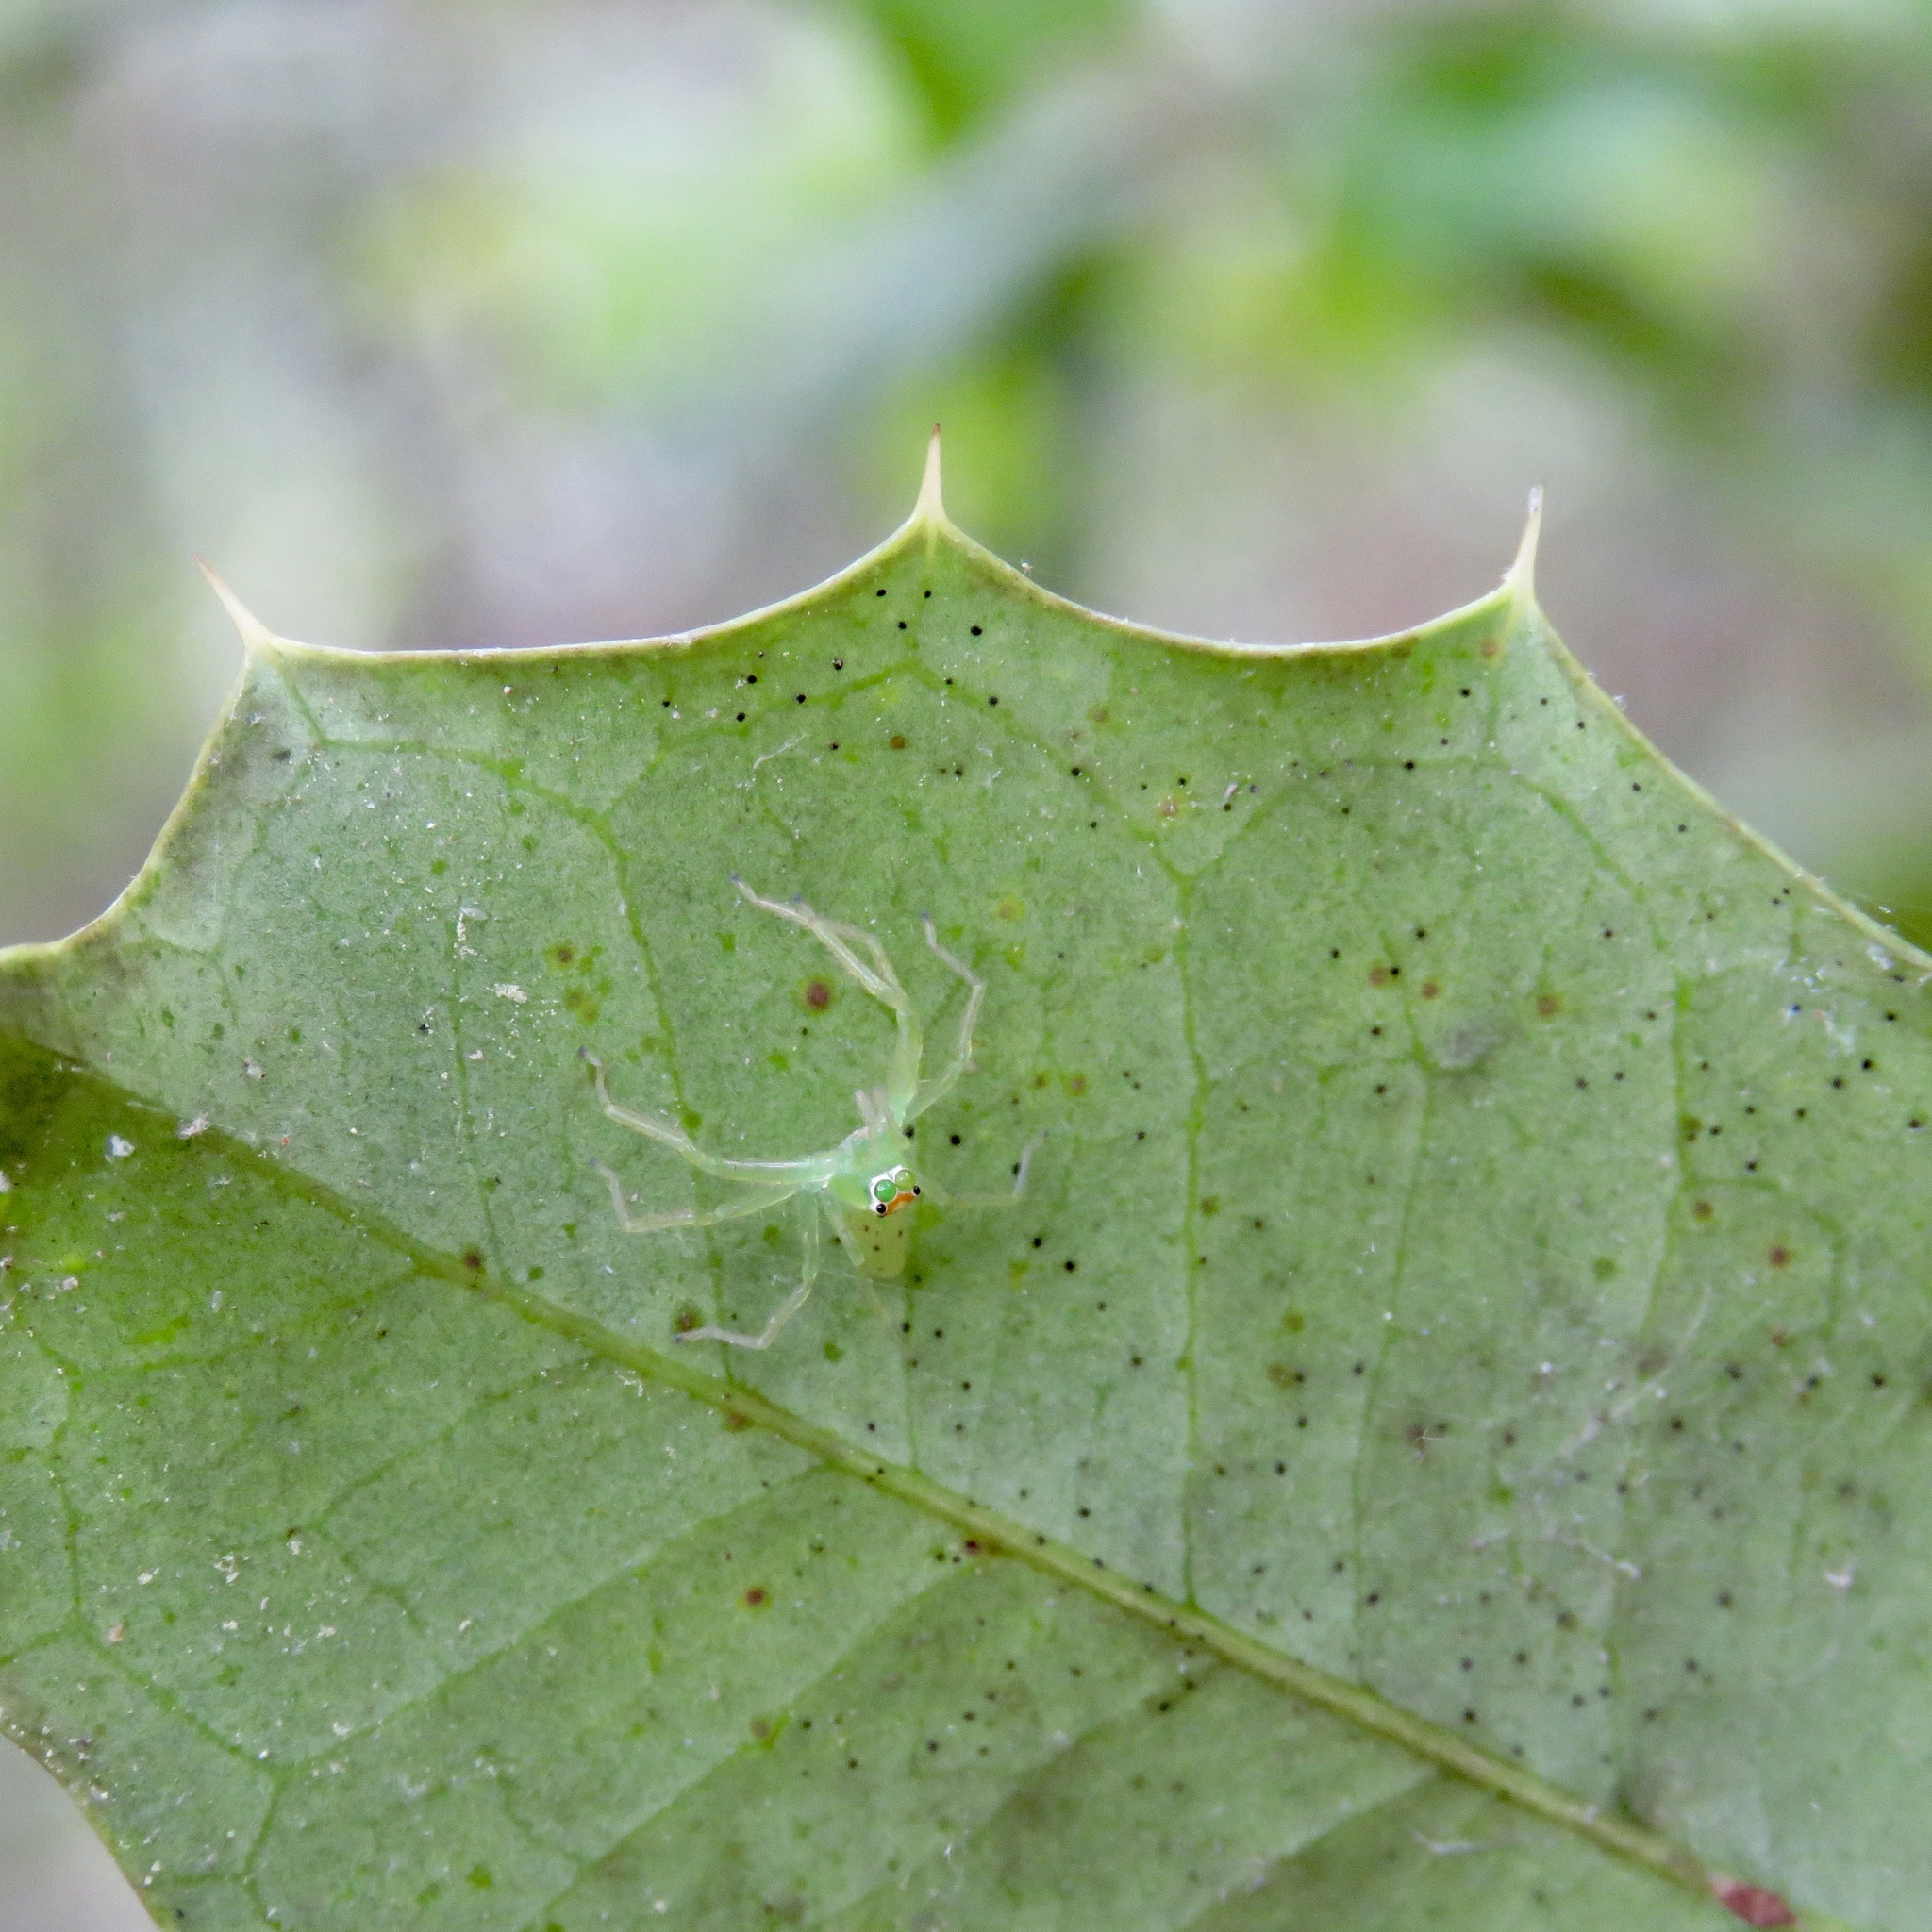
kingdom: Animalia
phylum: Arthropoda
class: Arachnida
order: Araneae
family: Salticidae
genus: Lyssomanes
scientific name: Lyssomanes viridis
